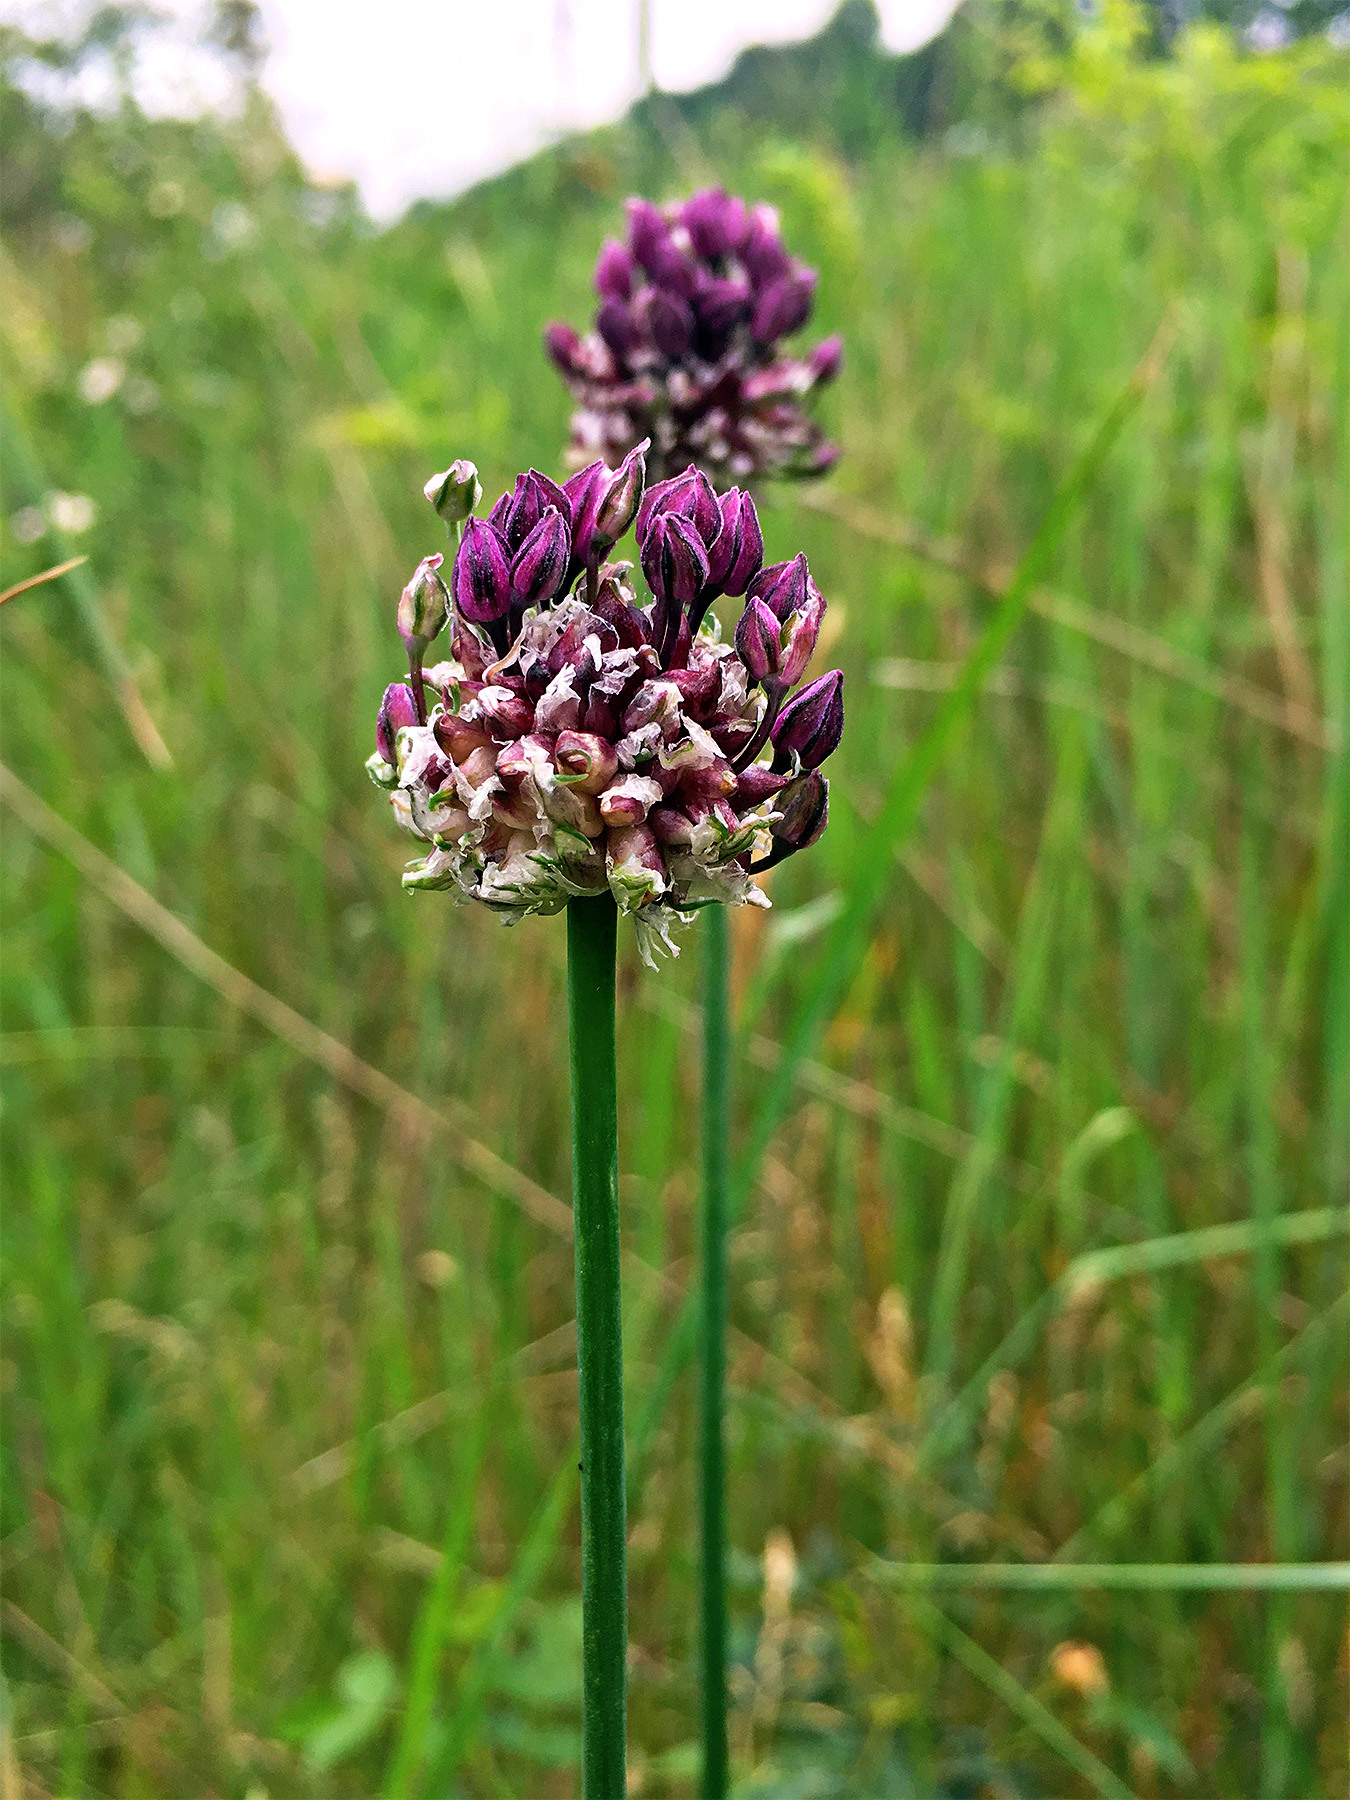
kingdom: Plantae
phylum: Tracheophyta
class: Liliopsida
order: Asparagales
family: Amaryllidaceae
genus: Allium
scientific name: Allium scorodoprasum
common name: Sand leek
